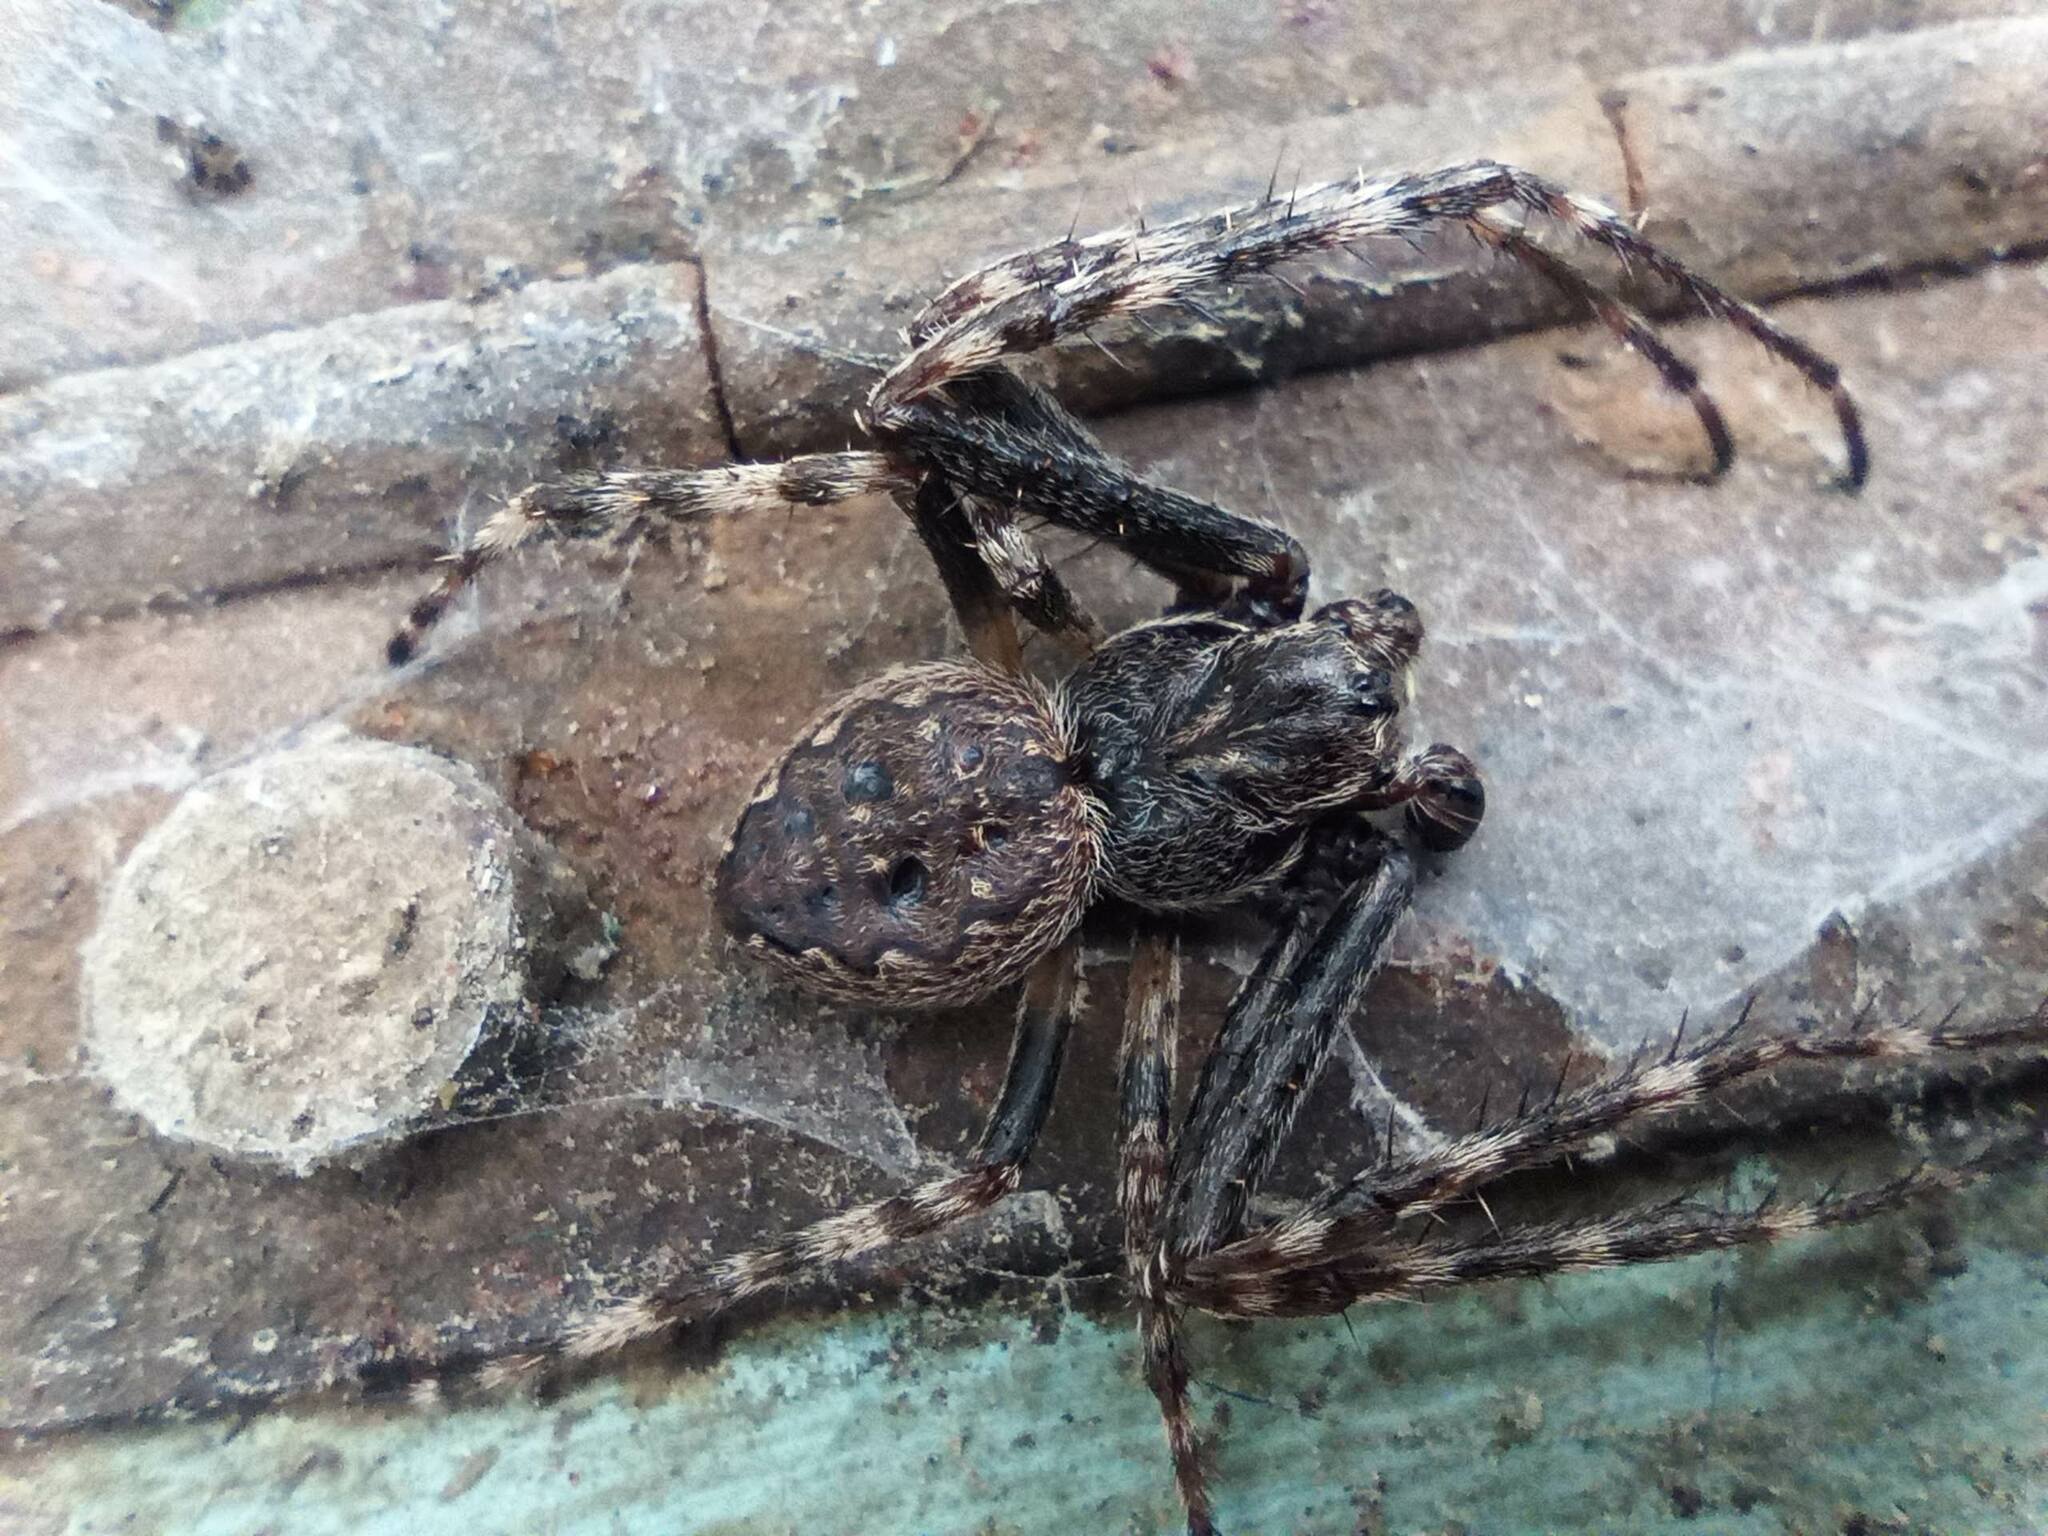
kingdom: Animalia
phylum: Arthropoda
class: Arachnida
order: Araneae
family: Araneidae
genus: Nuctenea
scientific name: Nuctenea umbratica
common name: Toad spider
